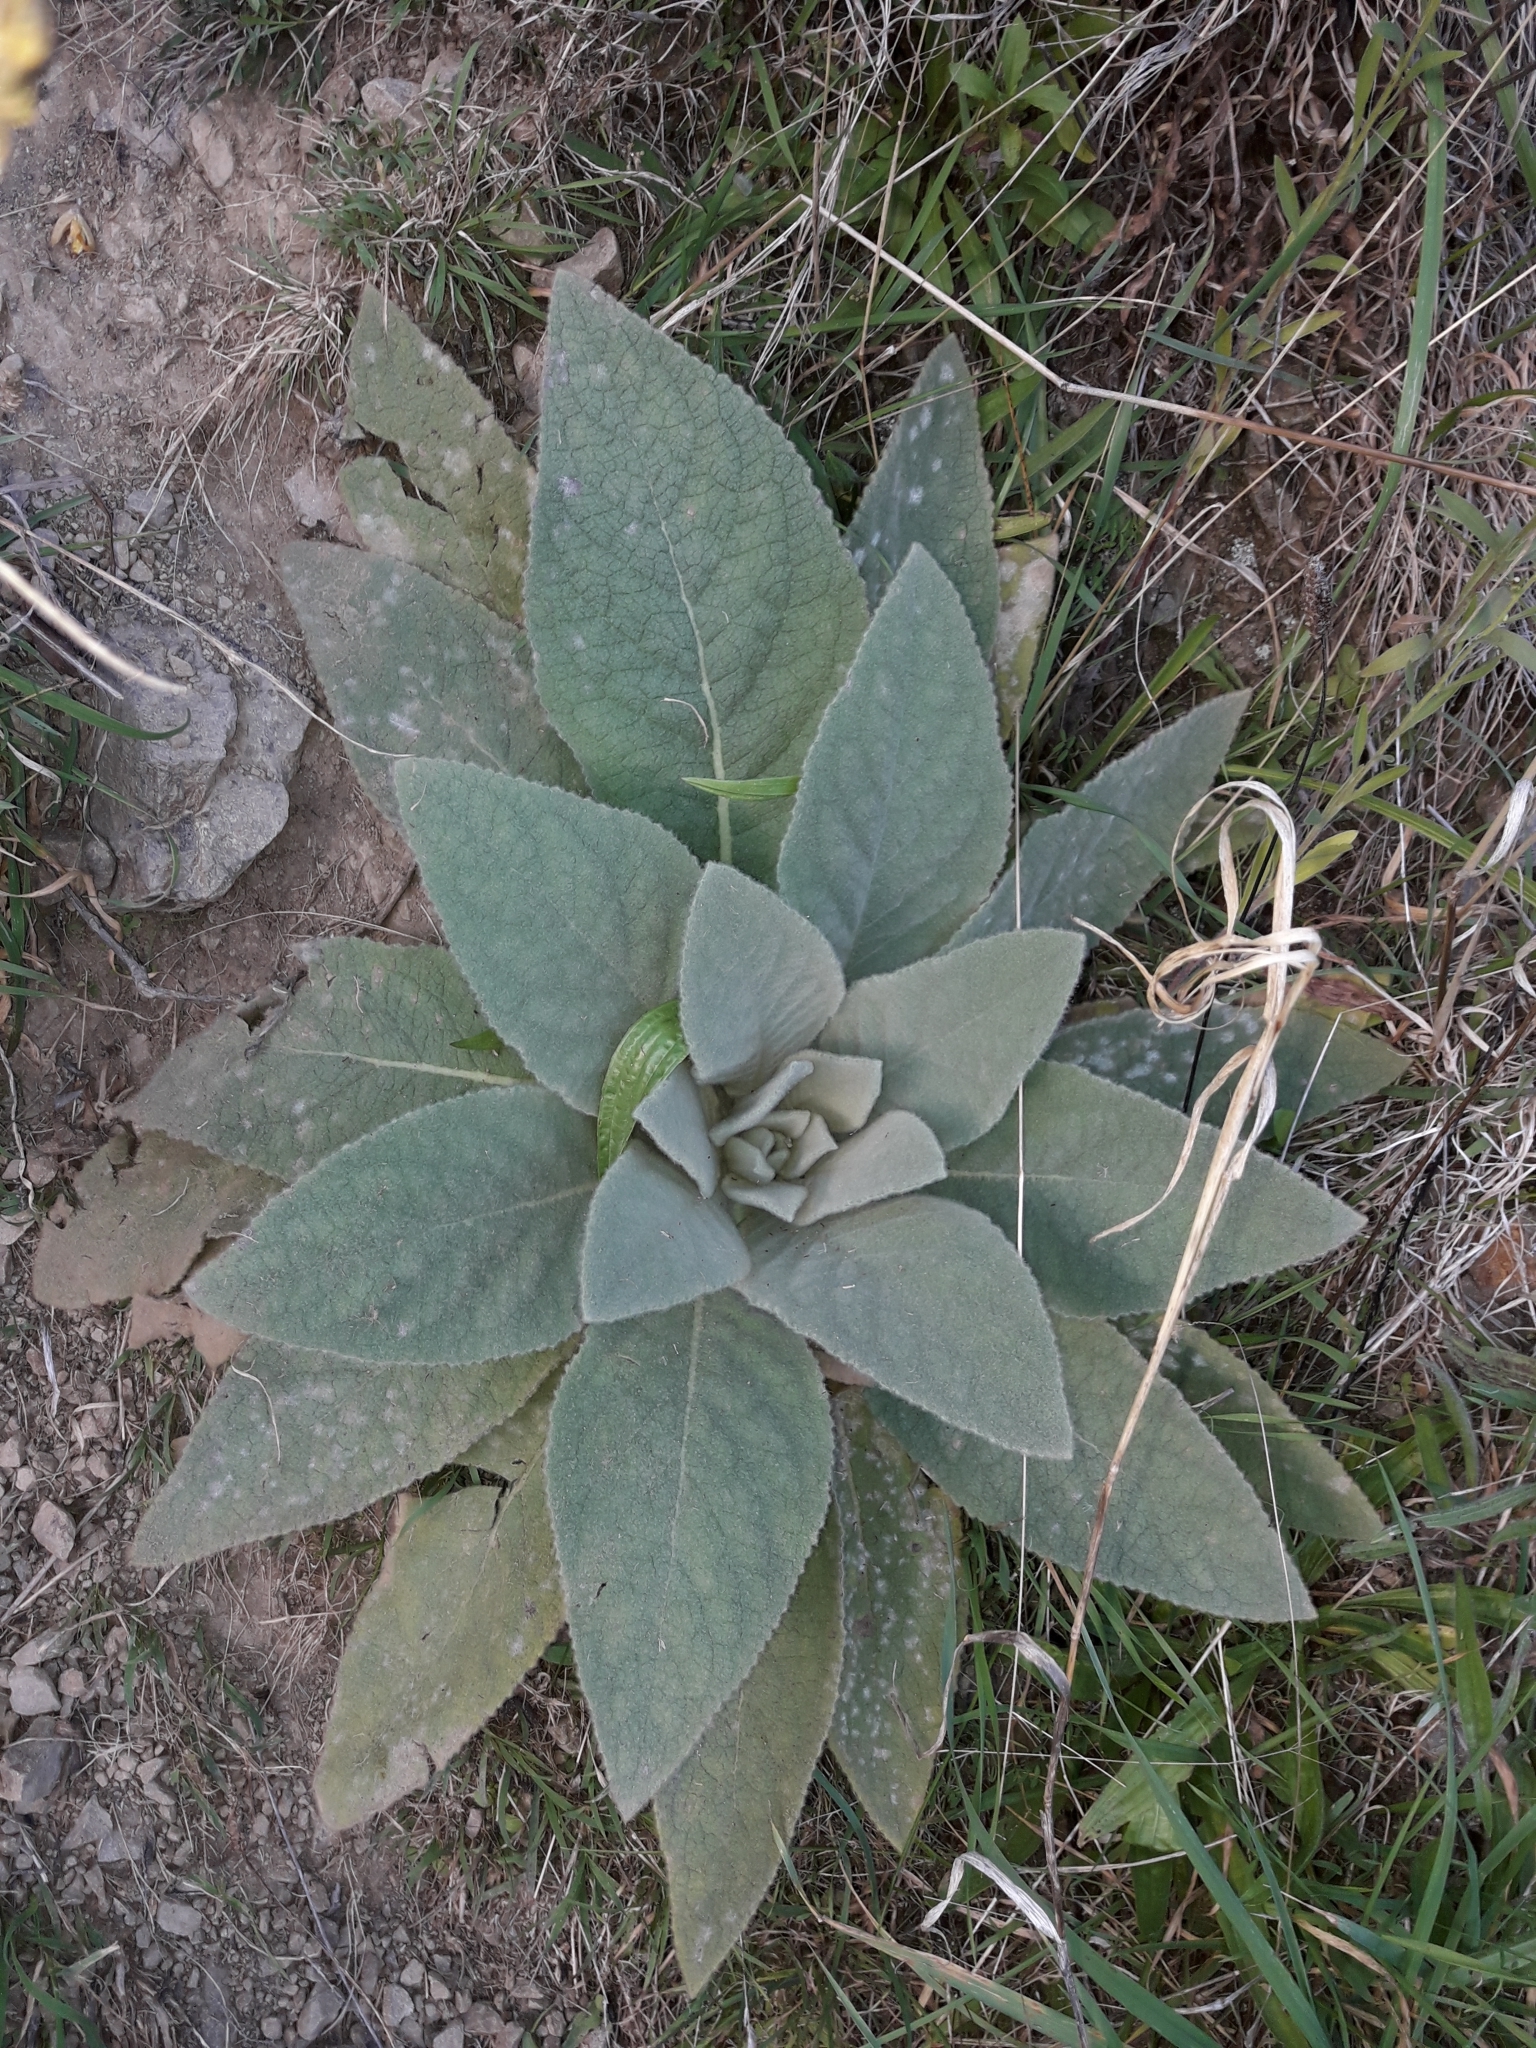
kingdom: Plantae
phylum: Tracheophyta
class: Magnoliopsida
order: Lamiales
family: Scrophulariaceae
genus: Verbascum
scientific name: Verbascum thapsus
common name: Common mullein
